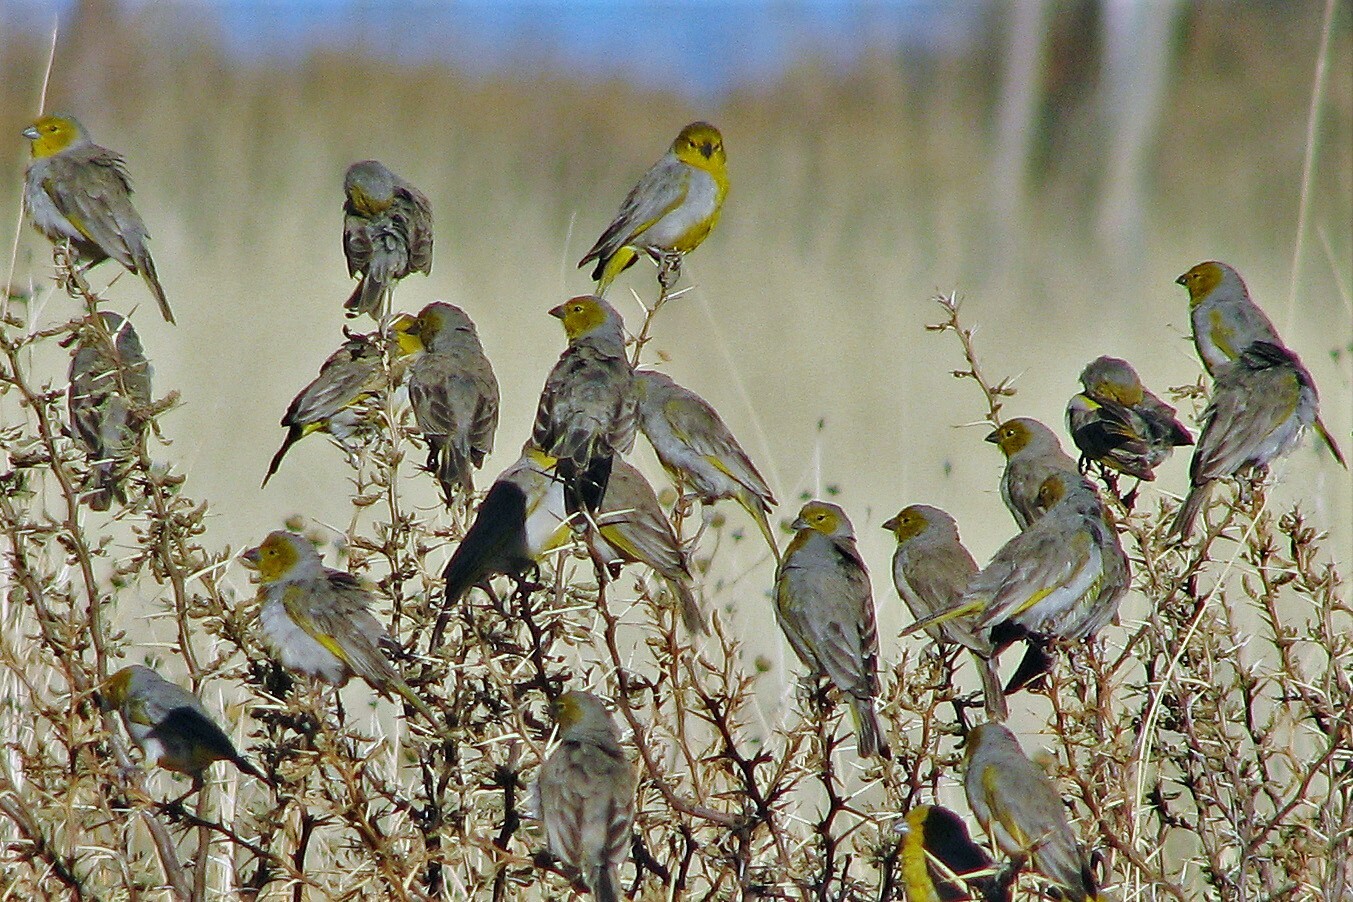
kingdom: Animalia
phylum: Chordata
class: Aves
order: Passeriformes
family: Thraupidae
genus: Sicalis
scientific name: Sicalis luteocephala
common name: Citron-headed yellow finch
